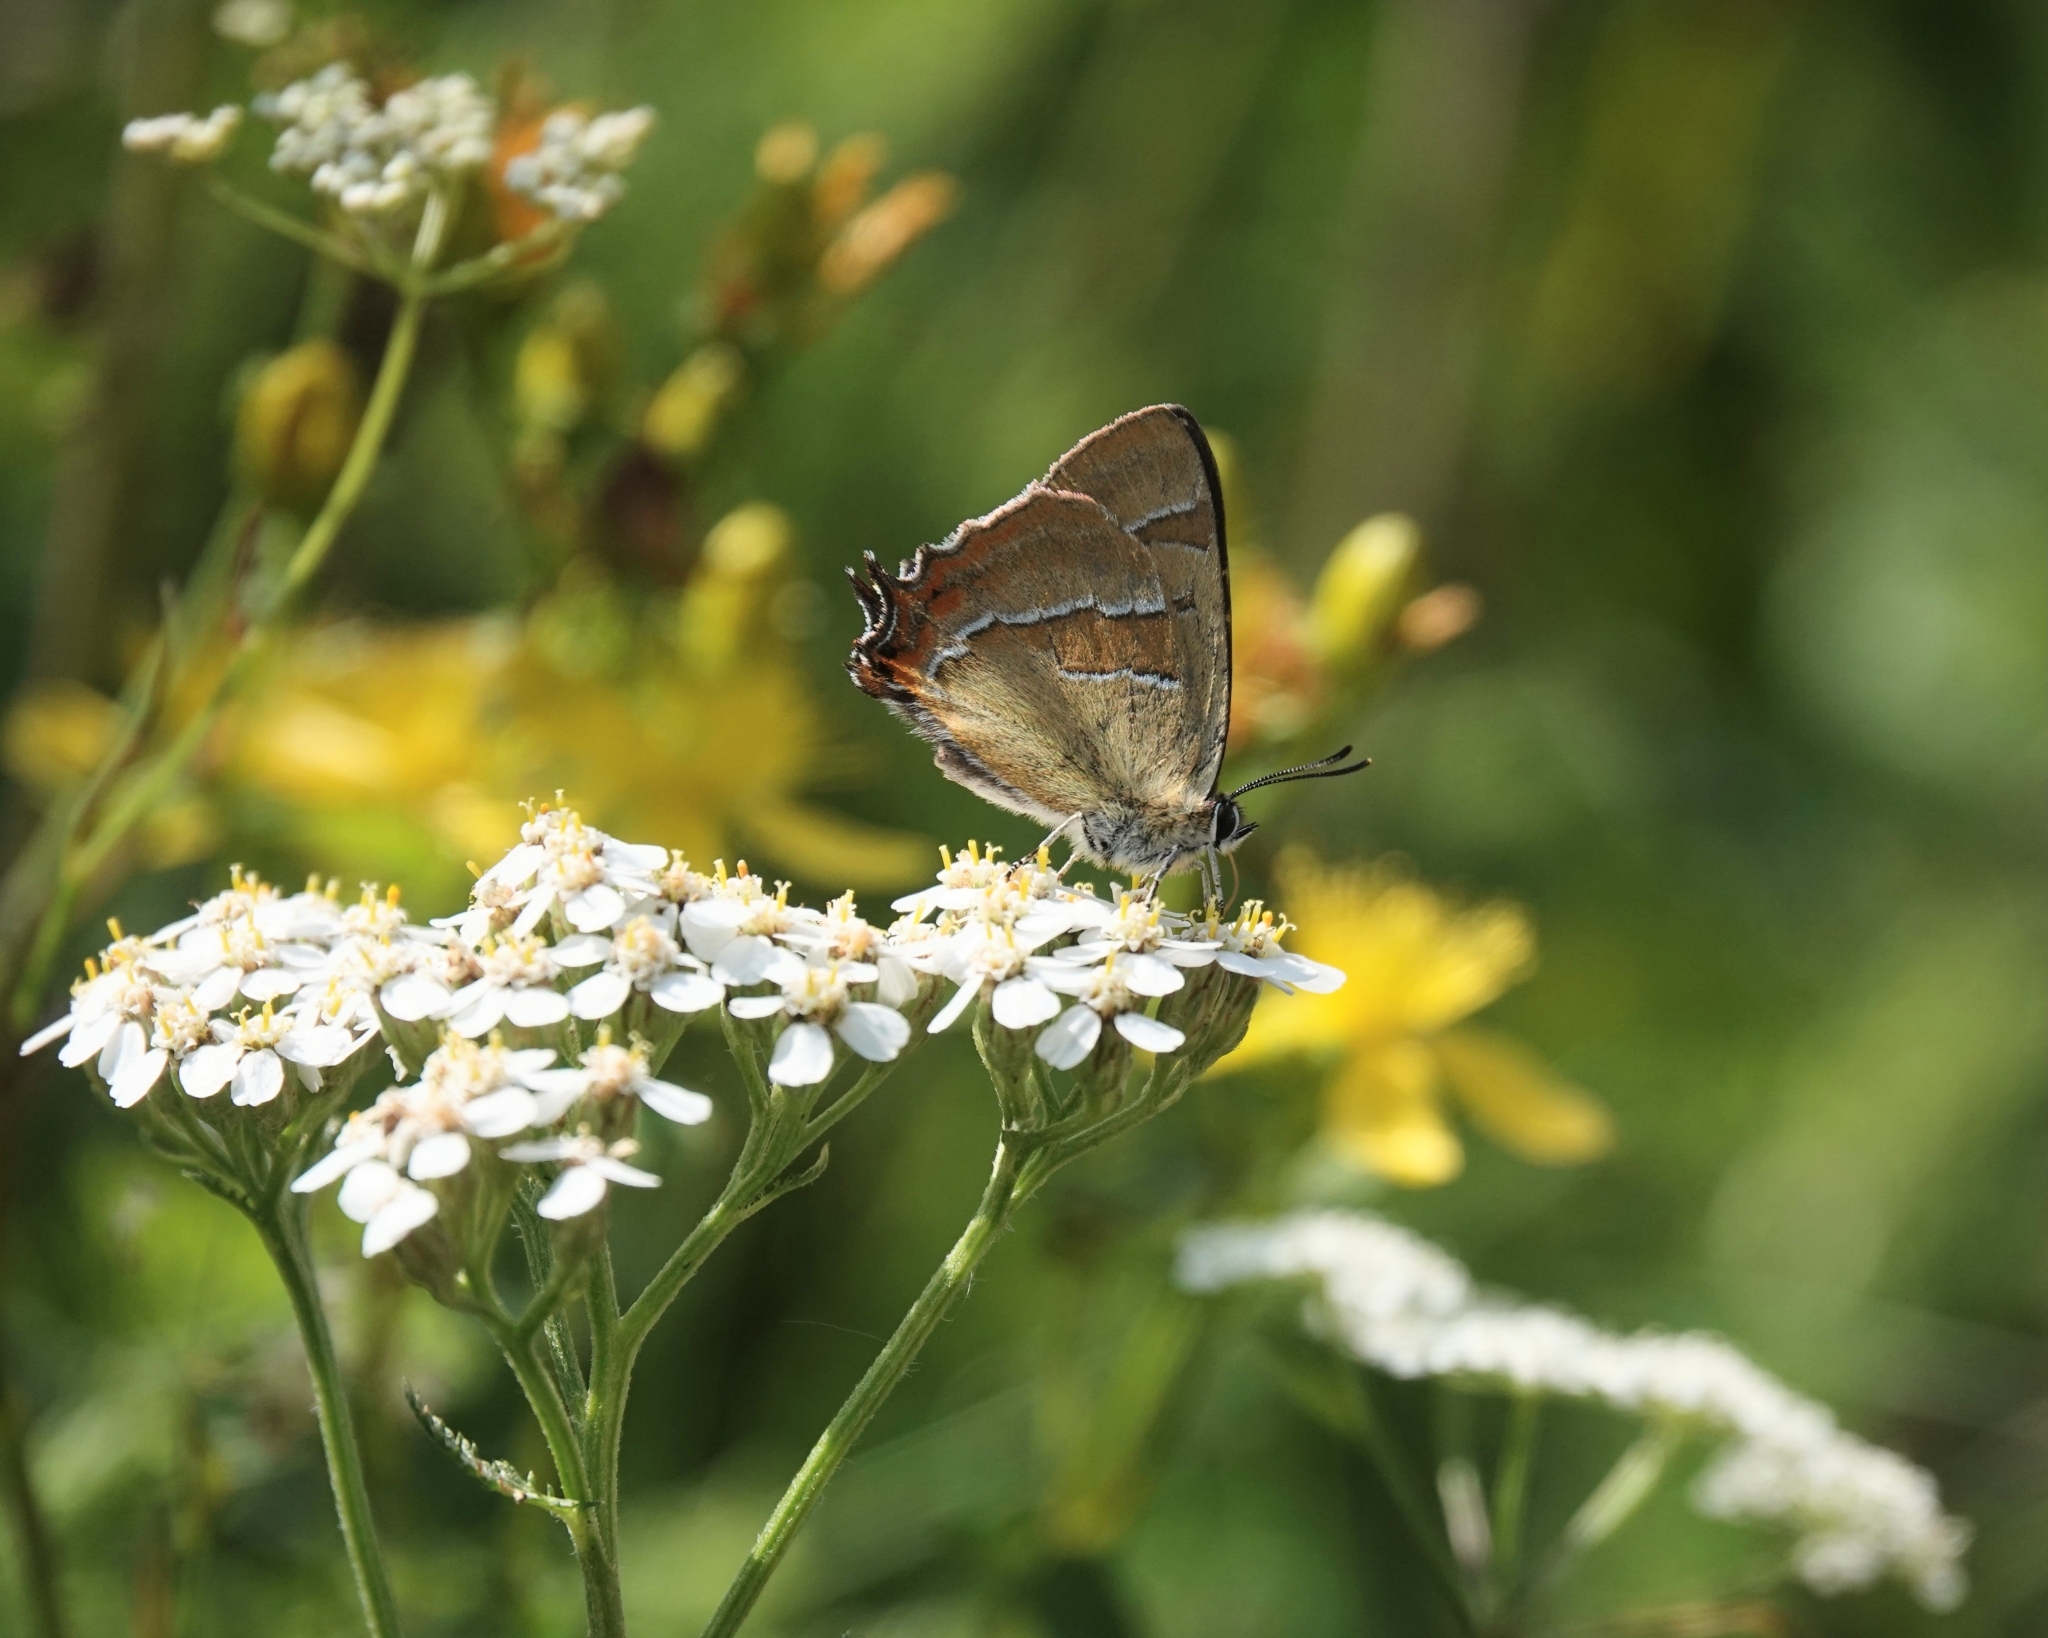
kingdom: Animalia
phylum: Arthropoda
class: Insecta
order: Lepidoptera
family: Lycaenidae
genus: Thecla
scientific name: Thecla betulae
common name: Brown hairstreak
